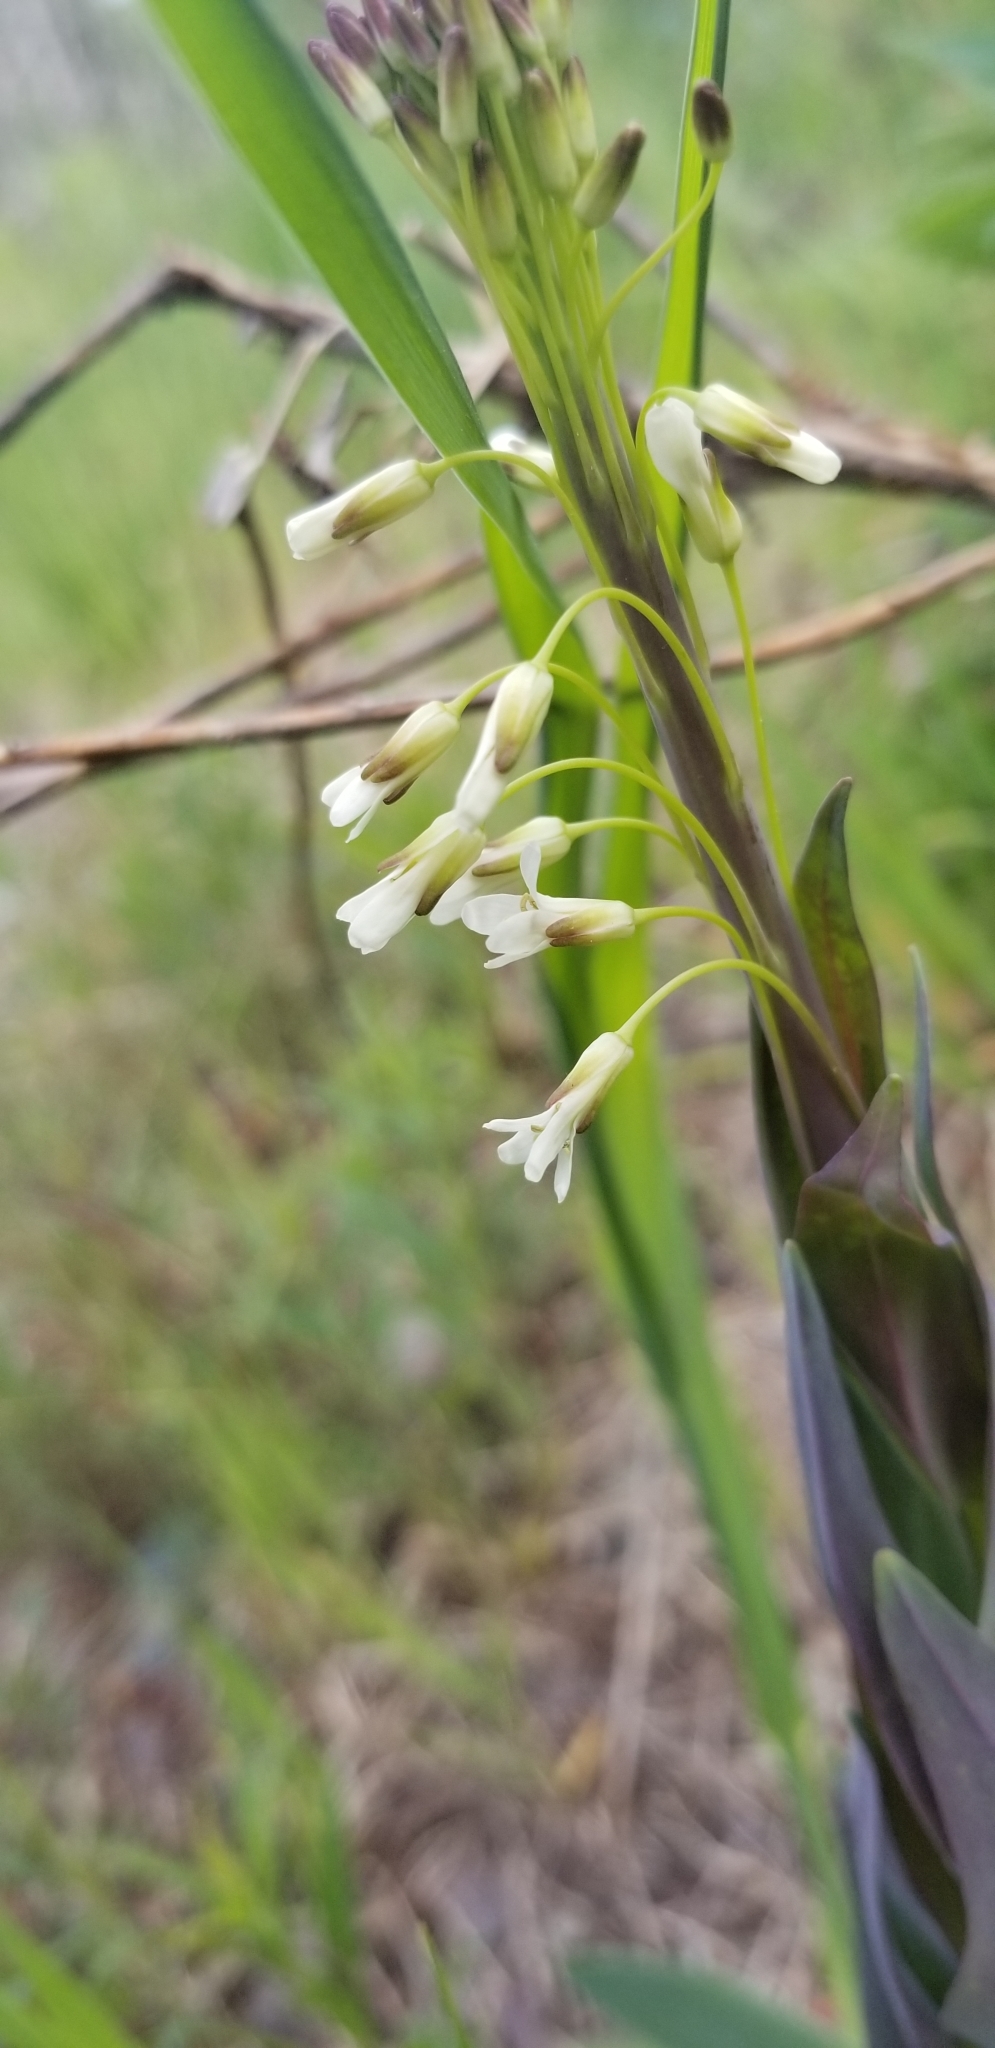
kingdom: Plantae
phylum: Tracheophyta
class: Magnoliopsida
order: Brassicales
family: Brassicaceae
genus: Turritis
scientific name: Turritis glabra
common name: Tower rockcress
